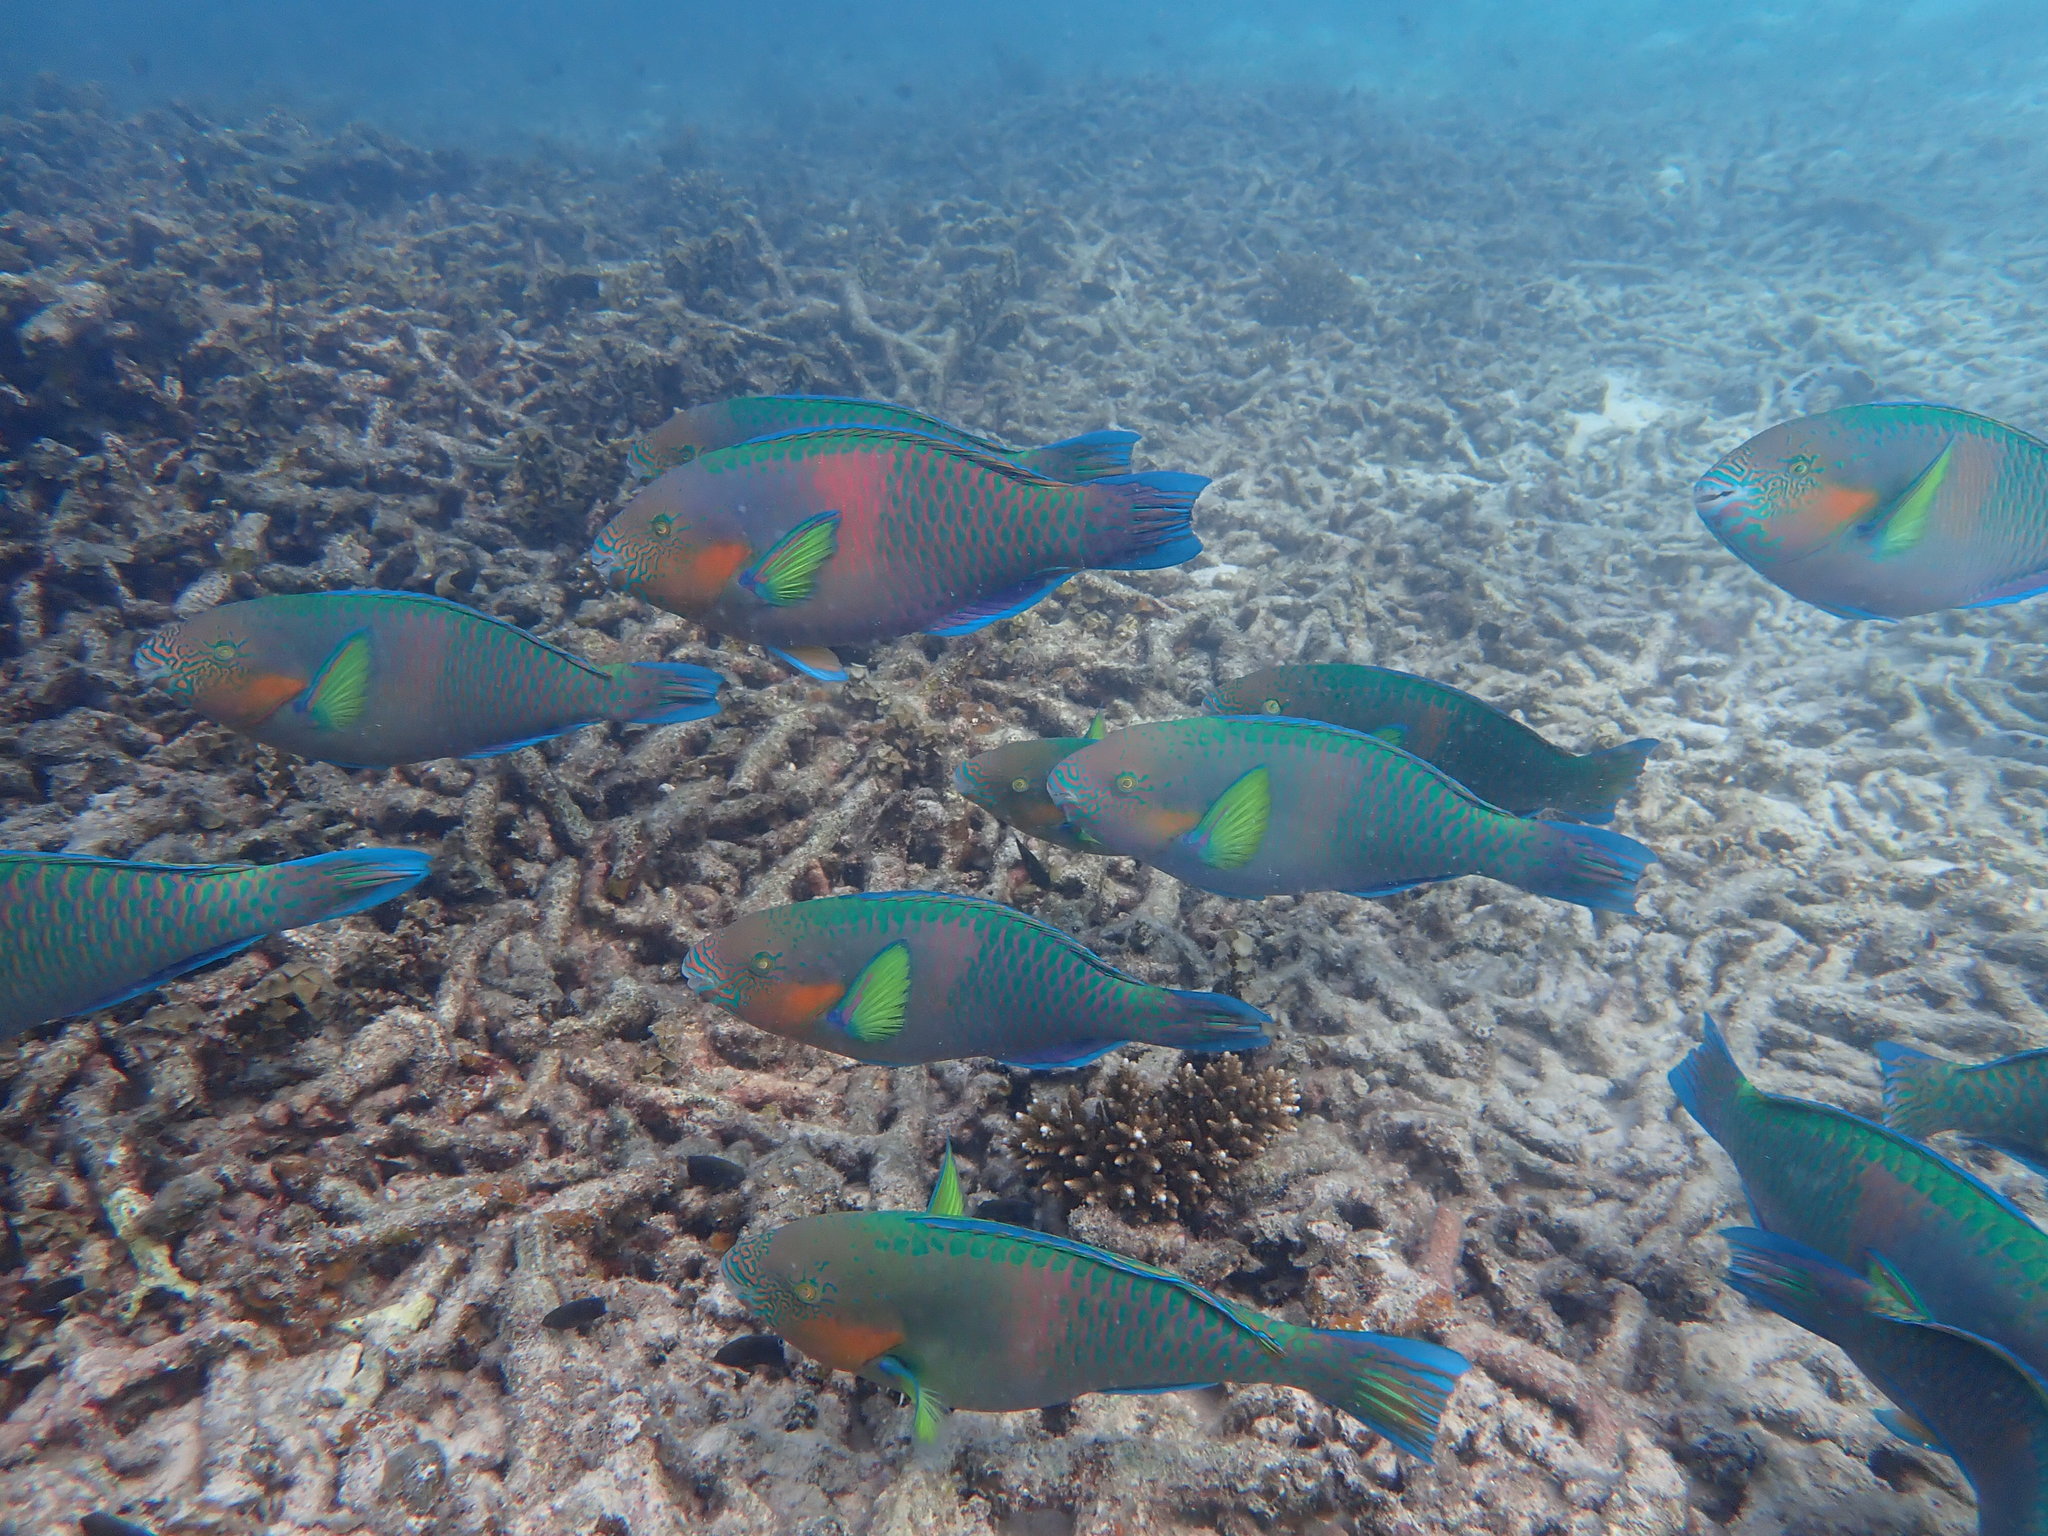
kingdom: Animalia
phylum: Chordata
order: Perciformes
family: Scaridae
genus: Scarus
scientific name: Scarus rivulatus
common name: Surf parrotfish
